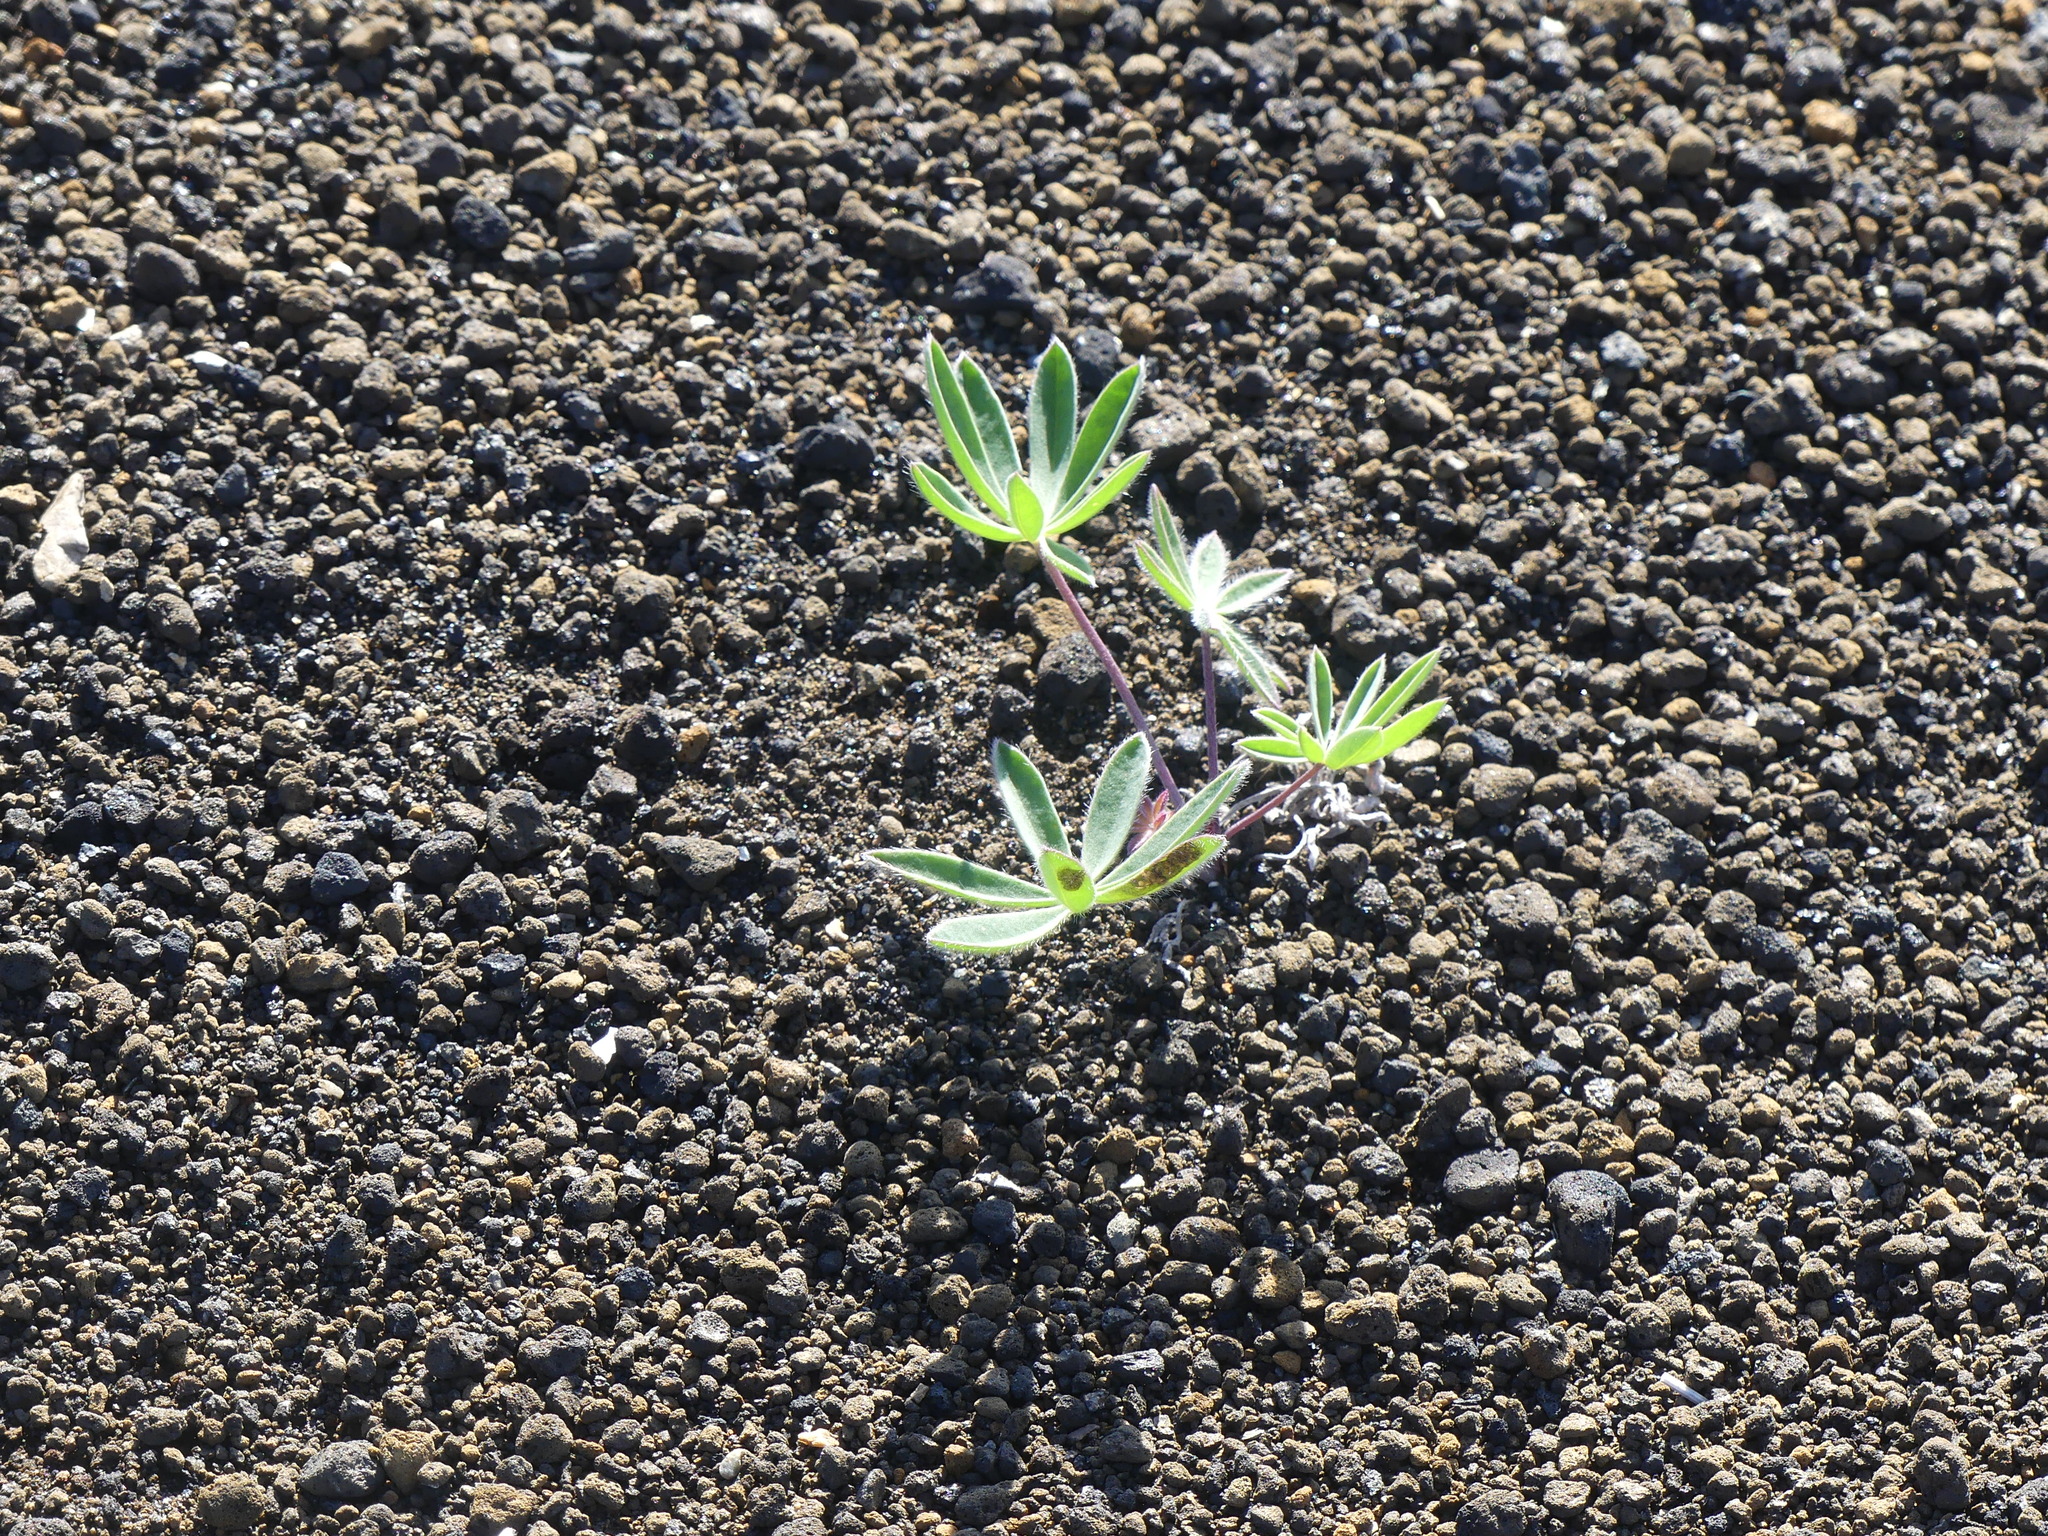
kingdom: Plantae
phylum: Tracheophyta
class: Magnoliopsida
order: Fabales
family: Fabaceae
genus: Lupinus
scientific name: Lupinus arcticus
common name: Arctic lupine
